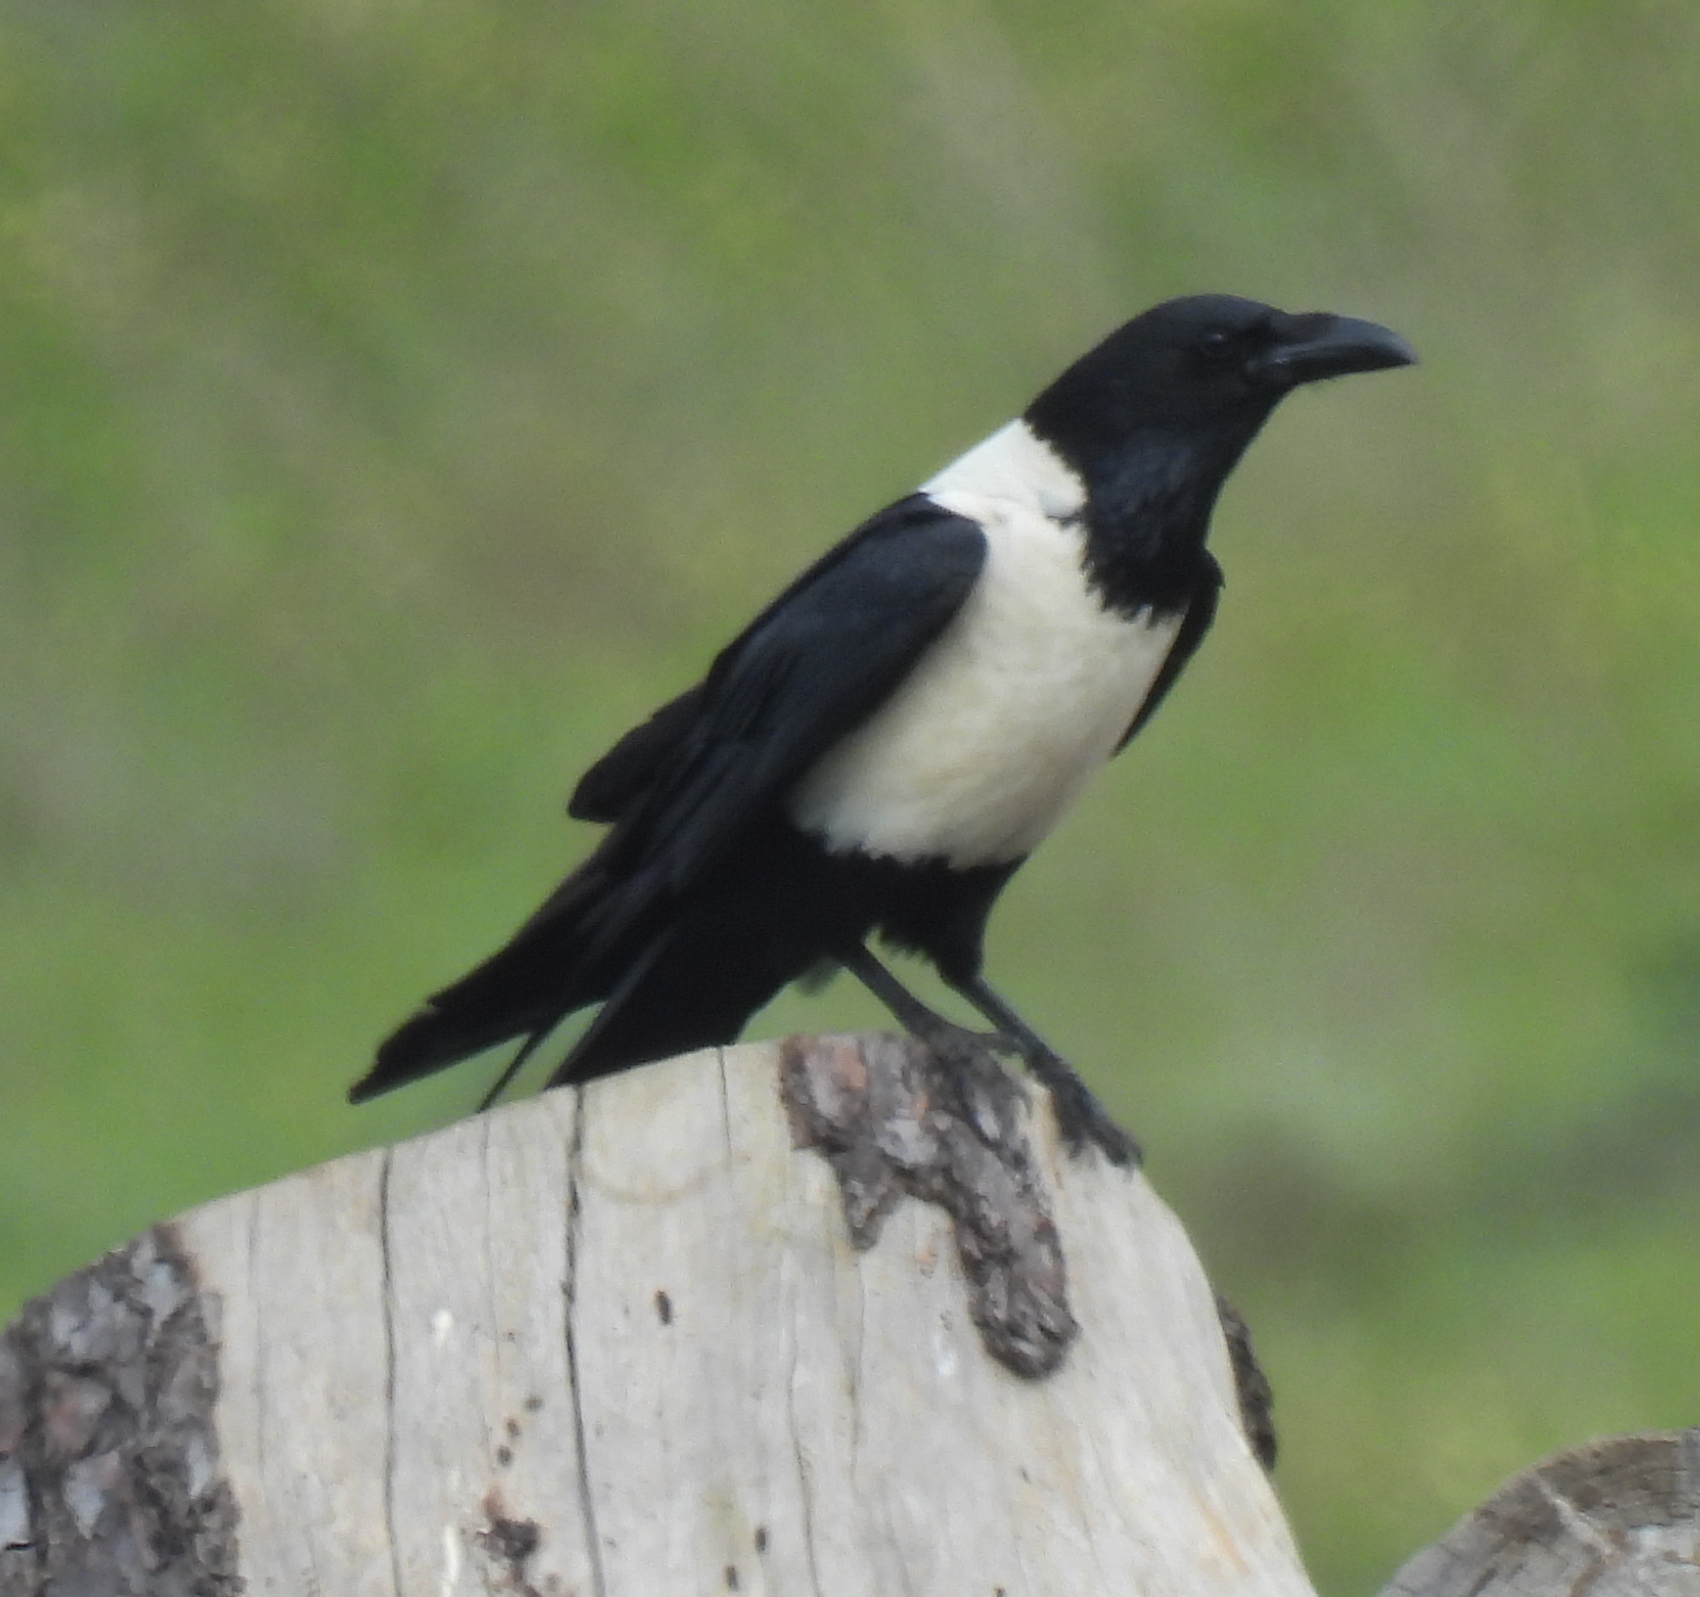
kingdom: Animalia
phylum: Chordata
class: Aves
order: Passeriformes
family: Corvidae
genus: Corvus
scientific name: Corvus albus
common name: Pied crow
